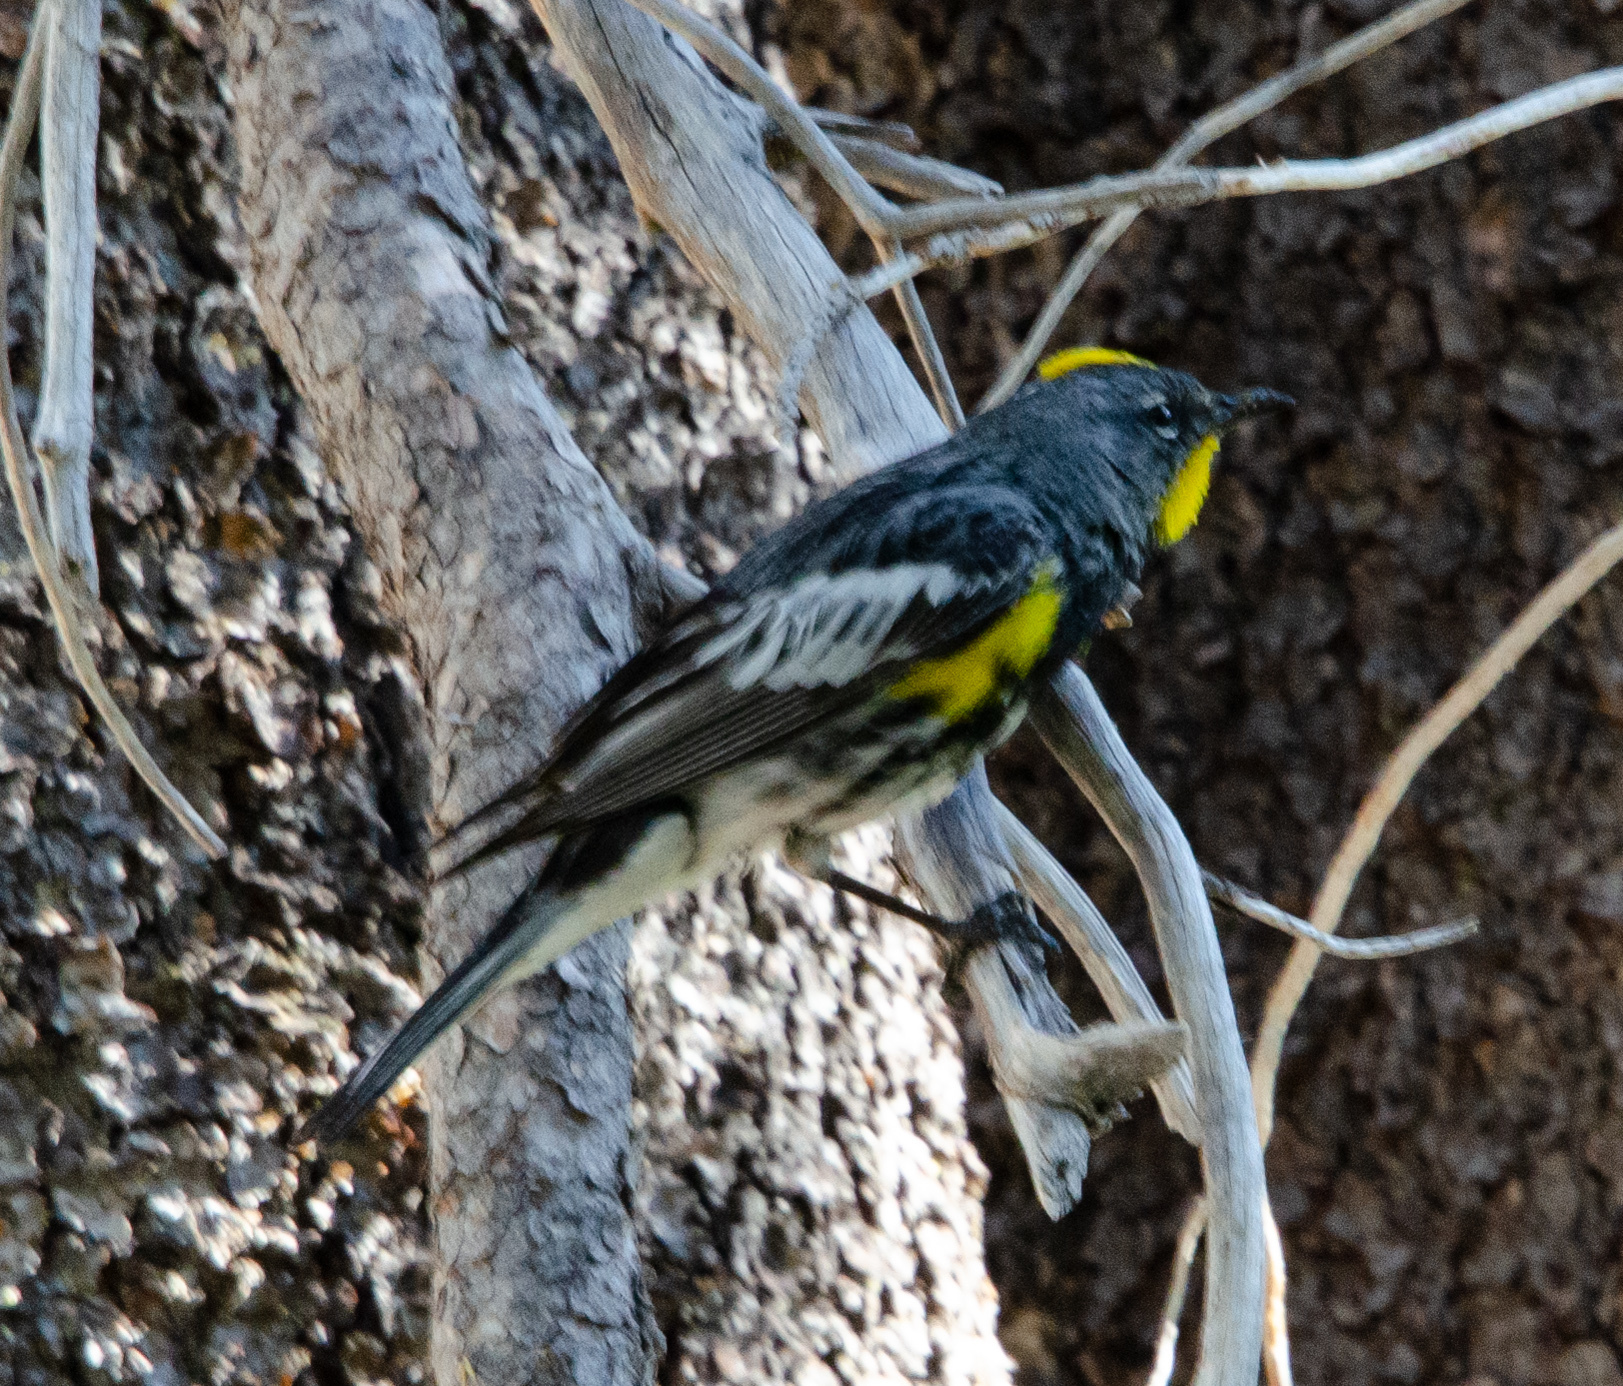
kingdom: Animalia
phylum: Chordata
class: Aves
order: Passeriformes
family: Parulidae
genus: Setophaga
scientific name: Setophaga auduboni
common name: Audubon's warbler
